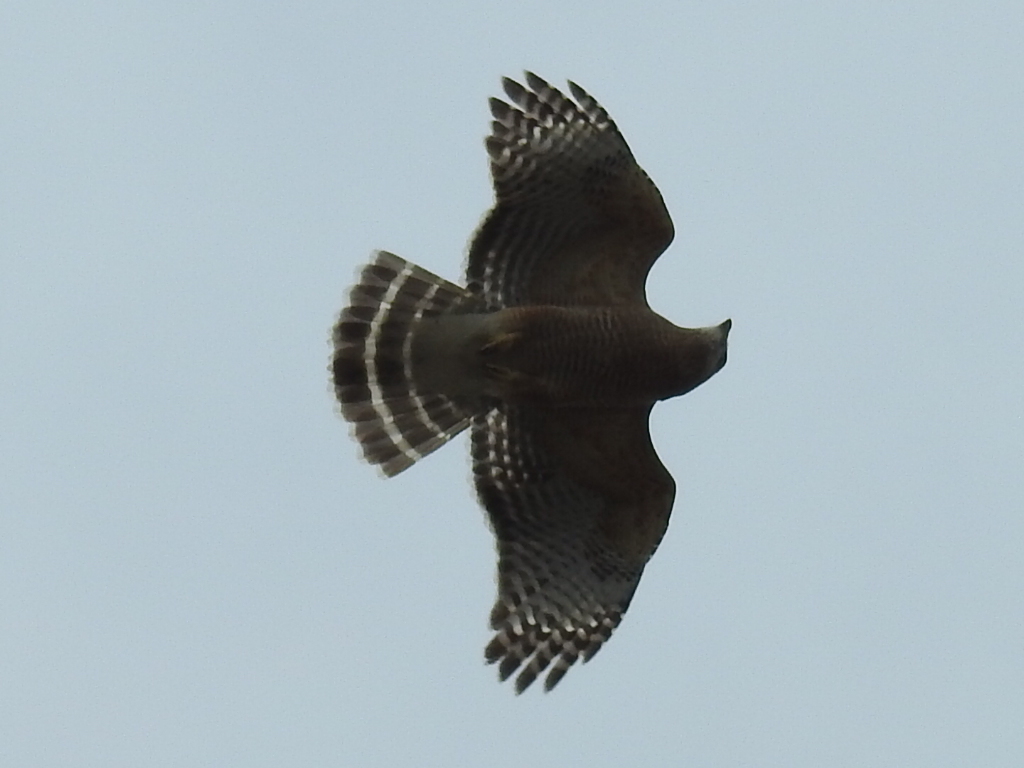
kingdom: Animalia
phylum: Chordata
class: Aves
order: Accipitriformes
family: Accipitridae
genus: Buteo
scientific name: Buteo lineatus
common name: Red-shouldered hawk
